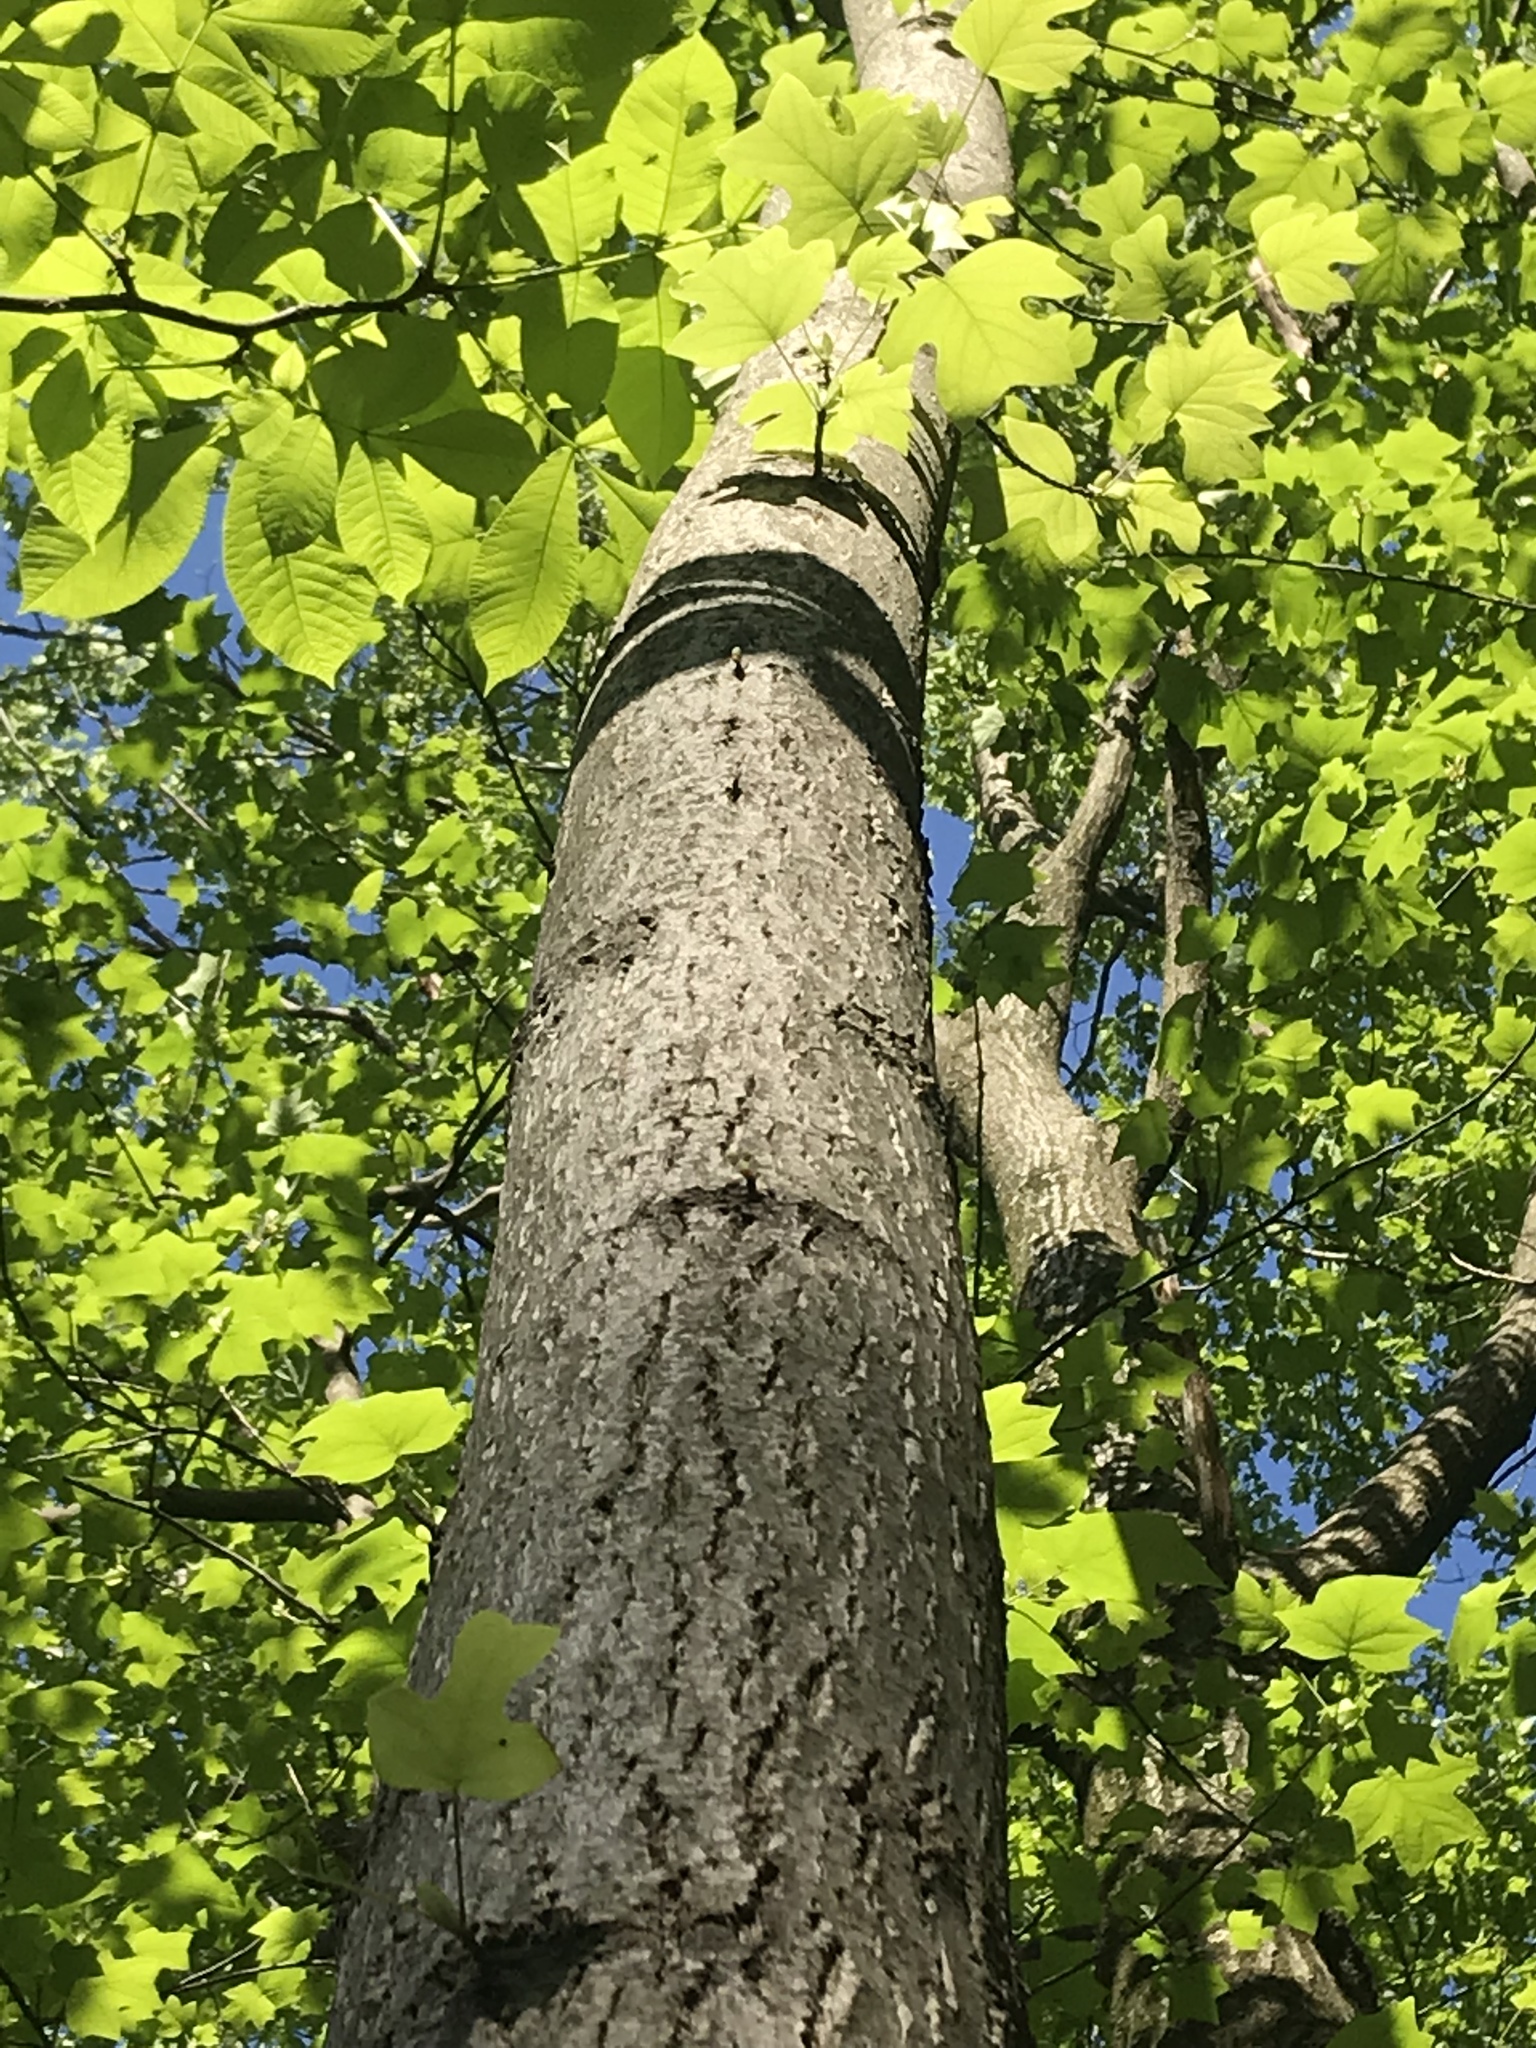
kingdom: Plantae
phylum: Tracheophyta
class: Magnoliopsida
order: Magnoliales
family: Magnoliaceae
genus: Liriodendron
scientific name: Liriodendron tulipifera
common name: Tulip tree
